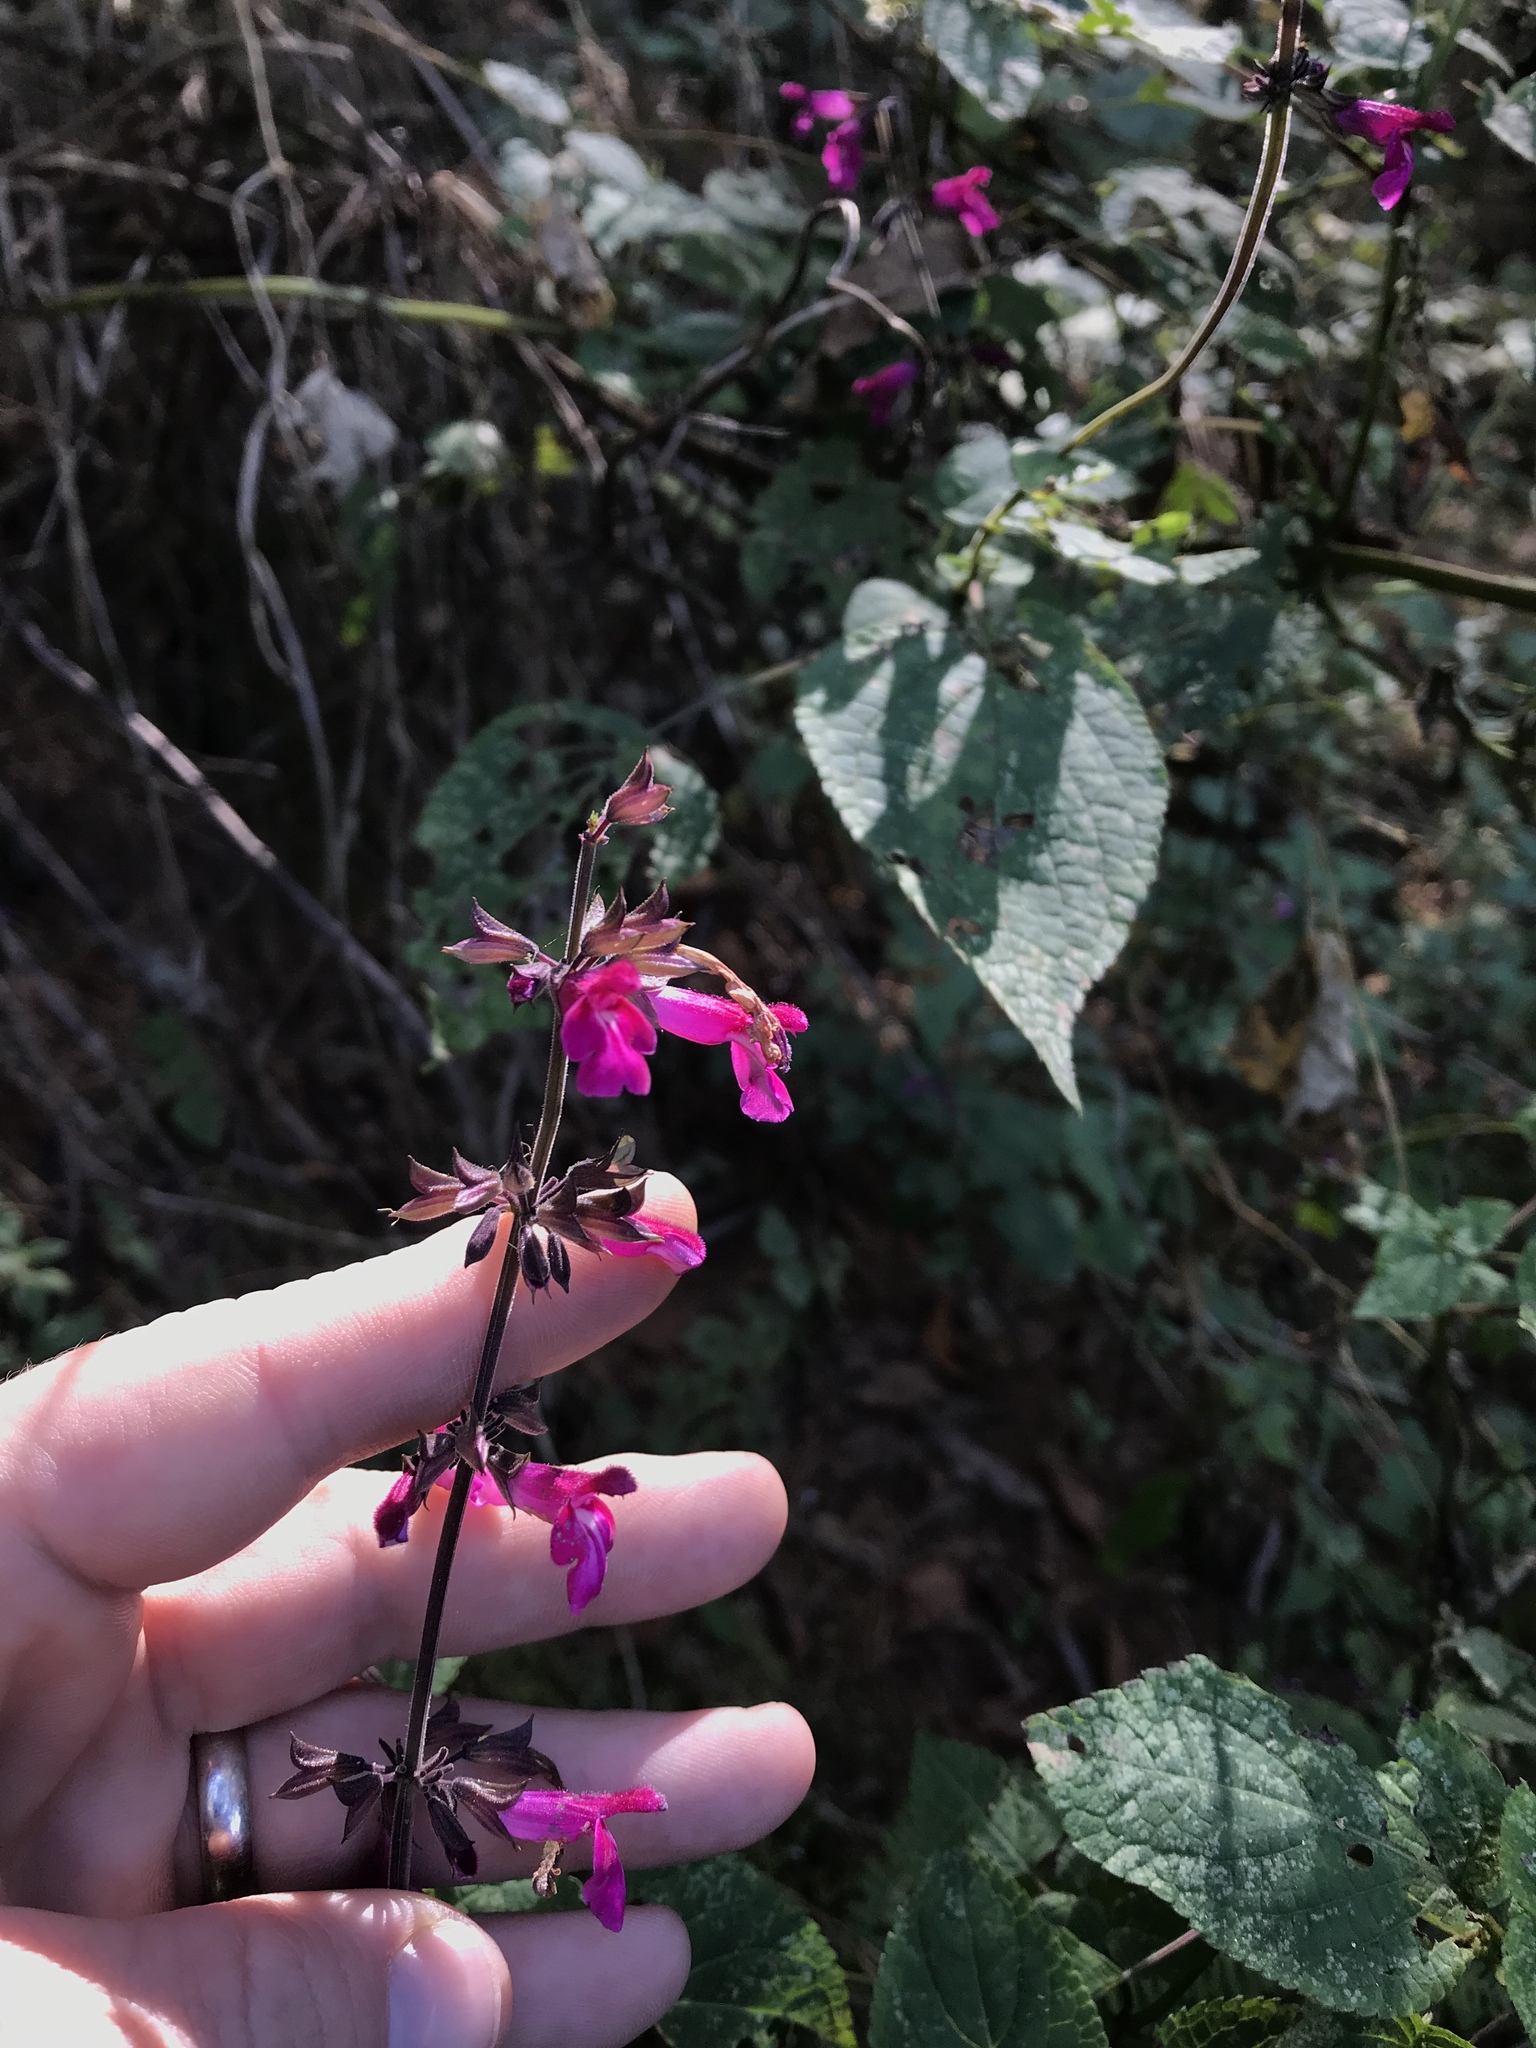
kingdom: Plantae
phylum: Tracheophyta
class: Magnoliopsida
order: Lamiales
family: Lamiaceae
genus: Salvia
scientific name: Salvia carnea
